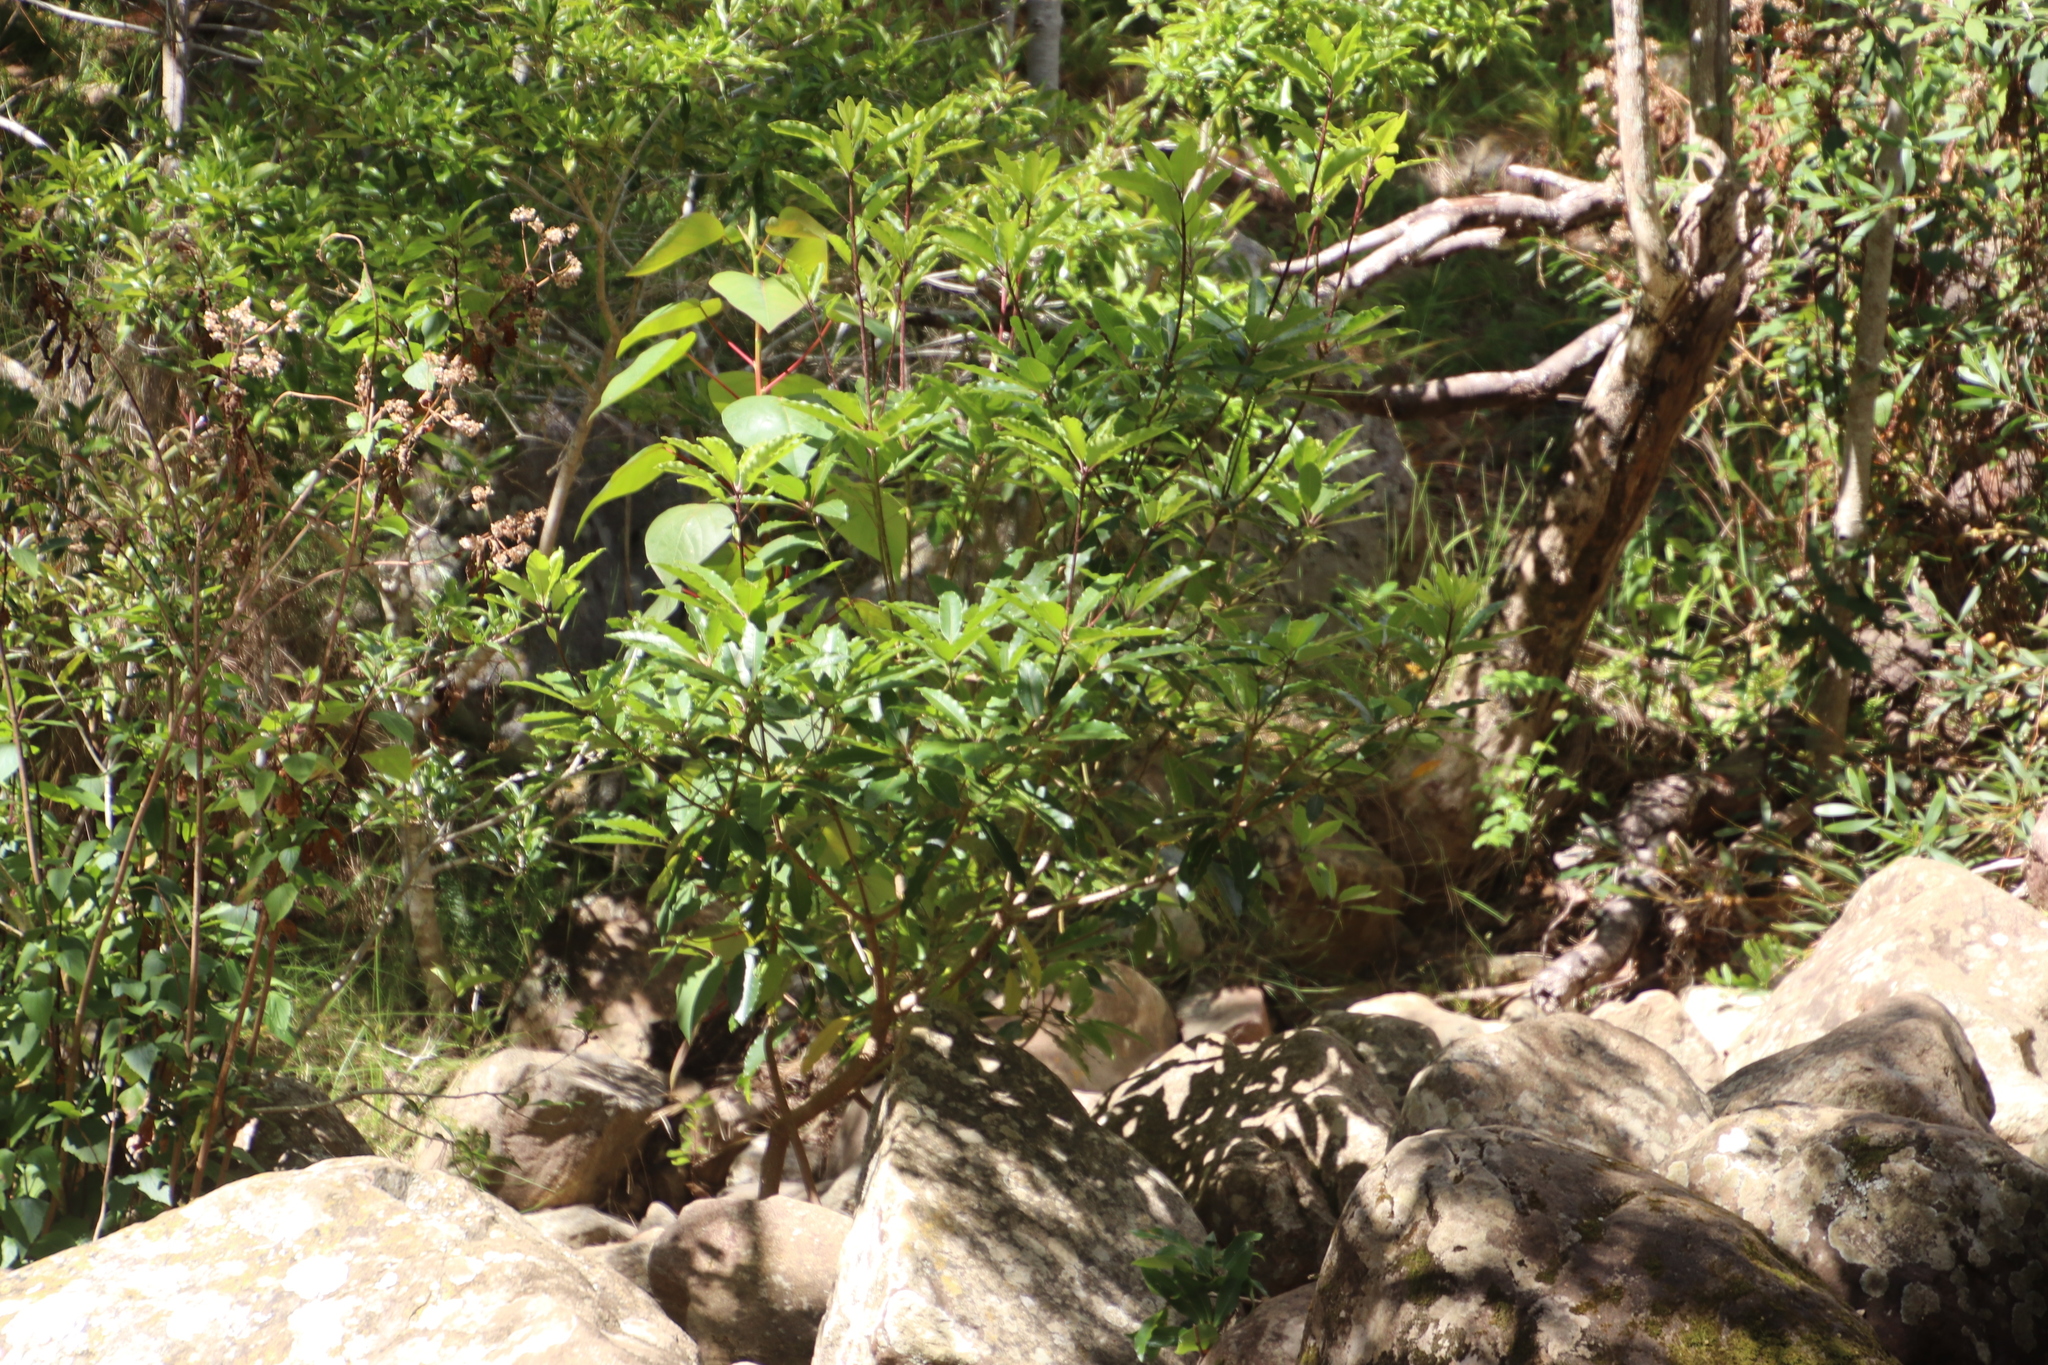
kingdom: Plantae
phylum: Tracheophyta
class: Magnoliopsida
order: Apiales
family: Pittosporaceae
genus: Pittosporum
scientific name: Pittosporum undulatum
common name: Australian cheesewood
